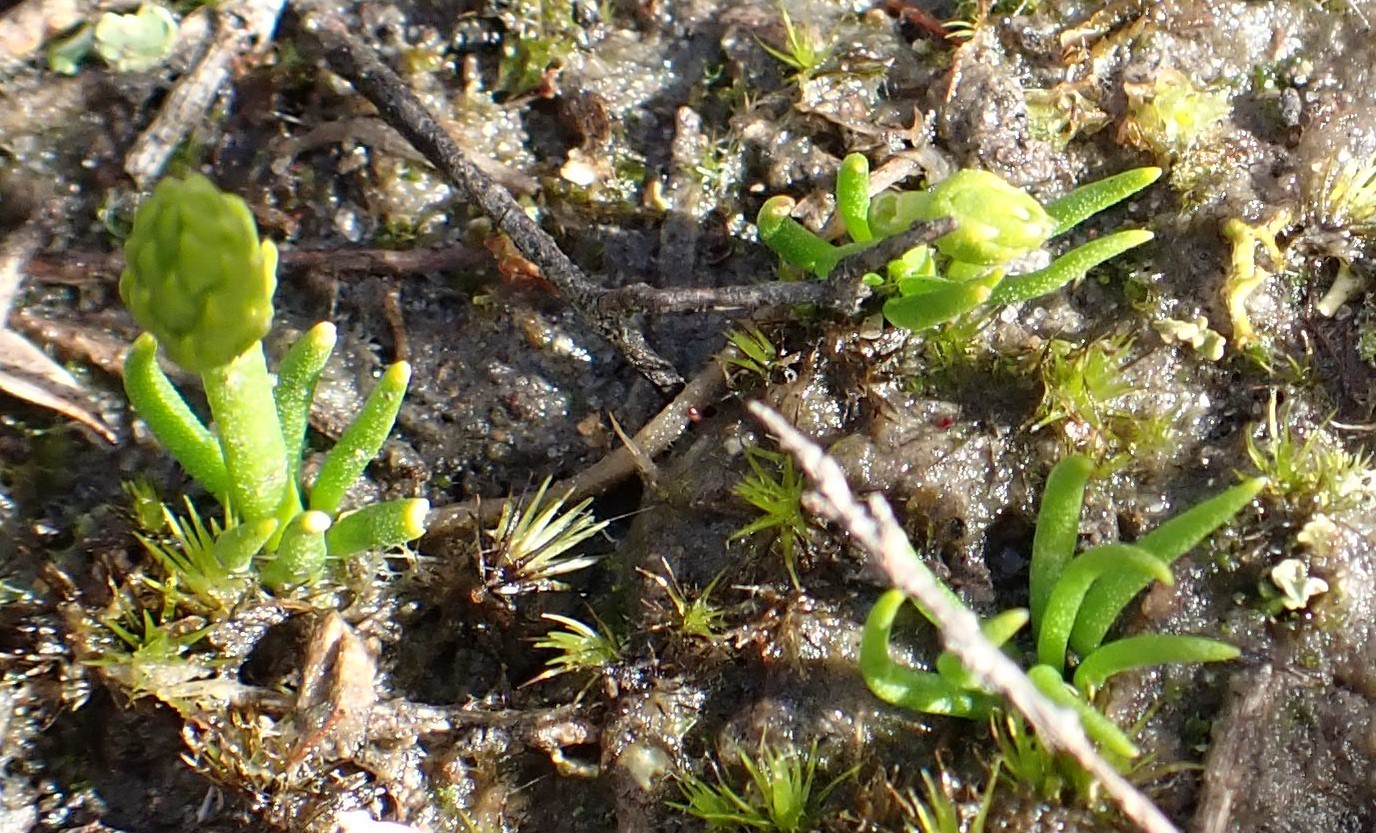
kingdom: Plantae
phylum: Tracheophyta
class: Lycopodiopsida
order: Lycopodiales
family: Lycopodiaceae
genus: Phylloglossum
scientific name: Phylloglossum drummondii
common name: Pigmy-club-moss
